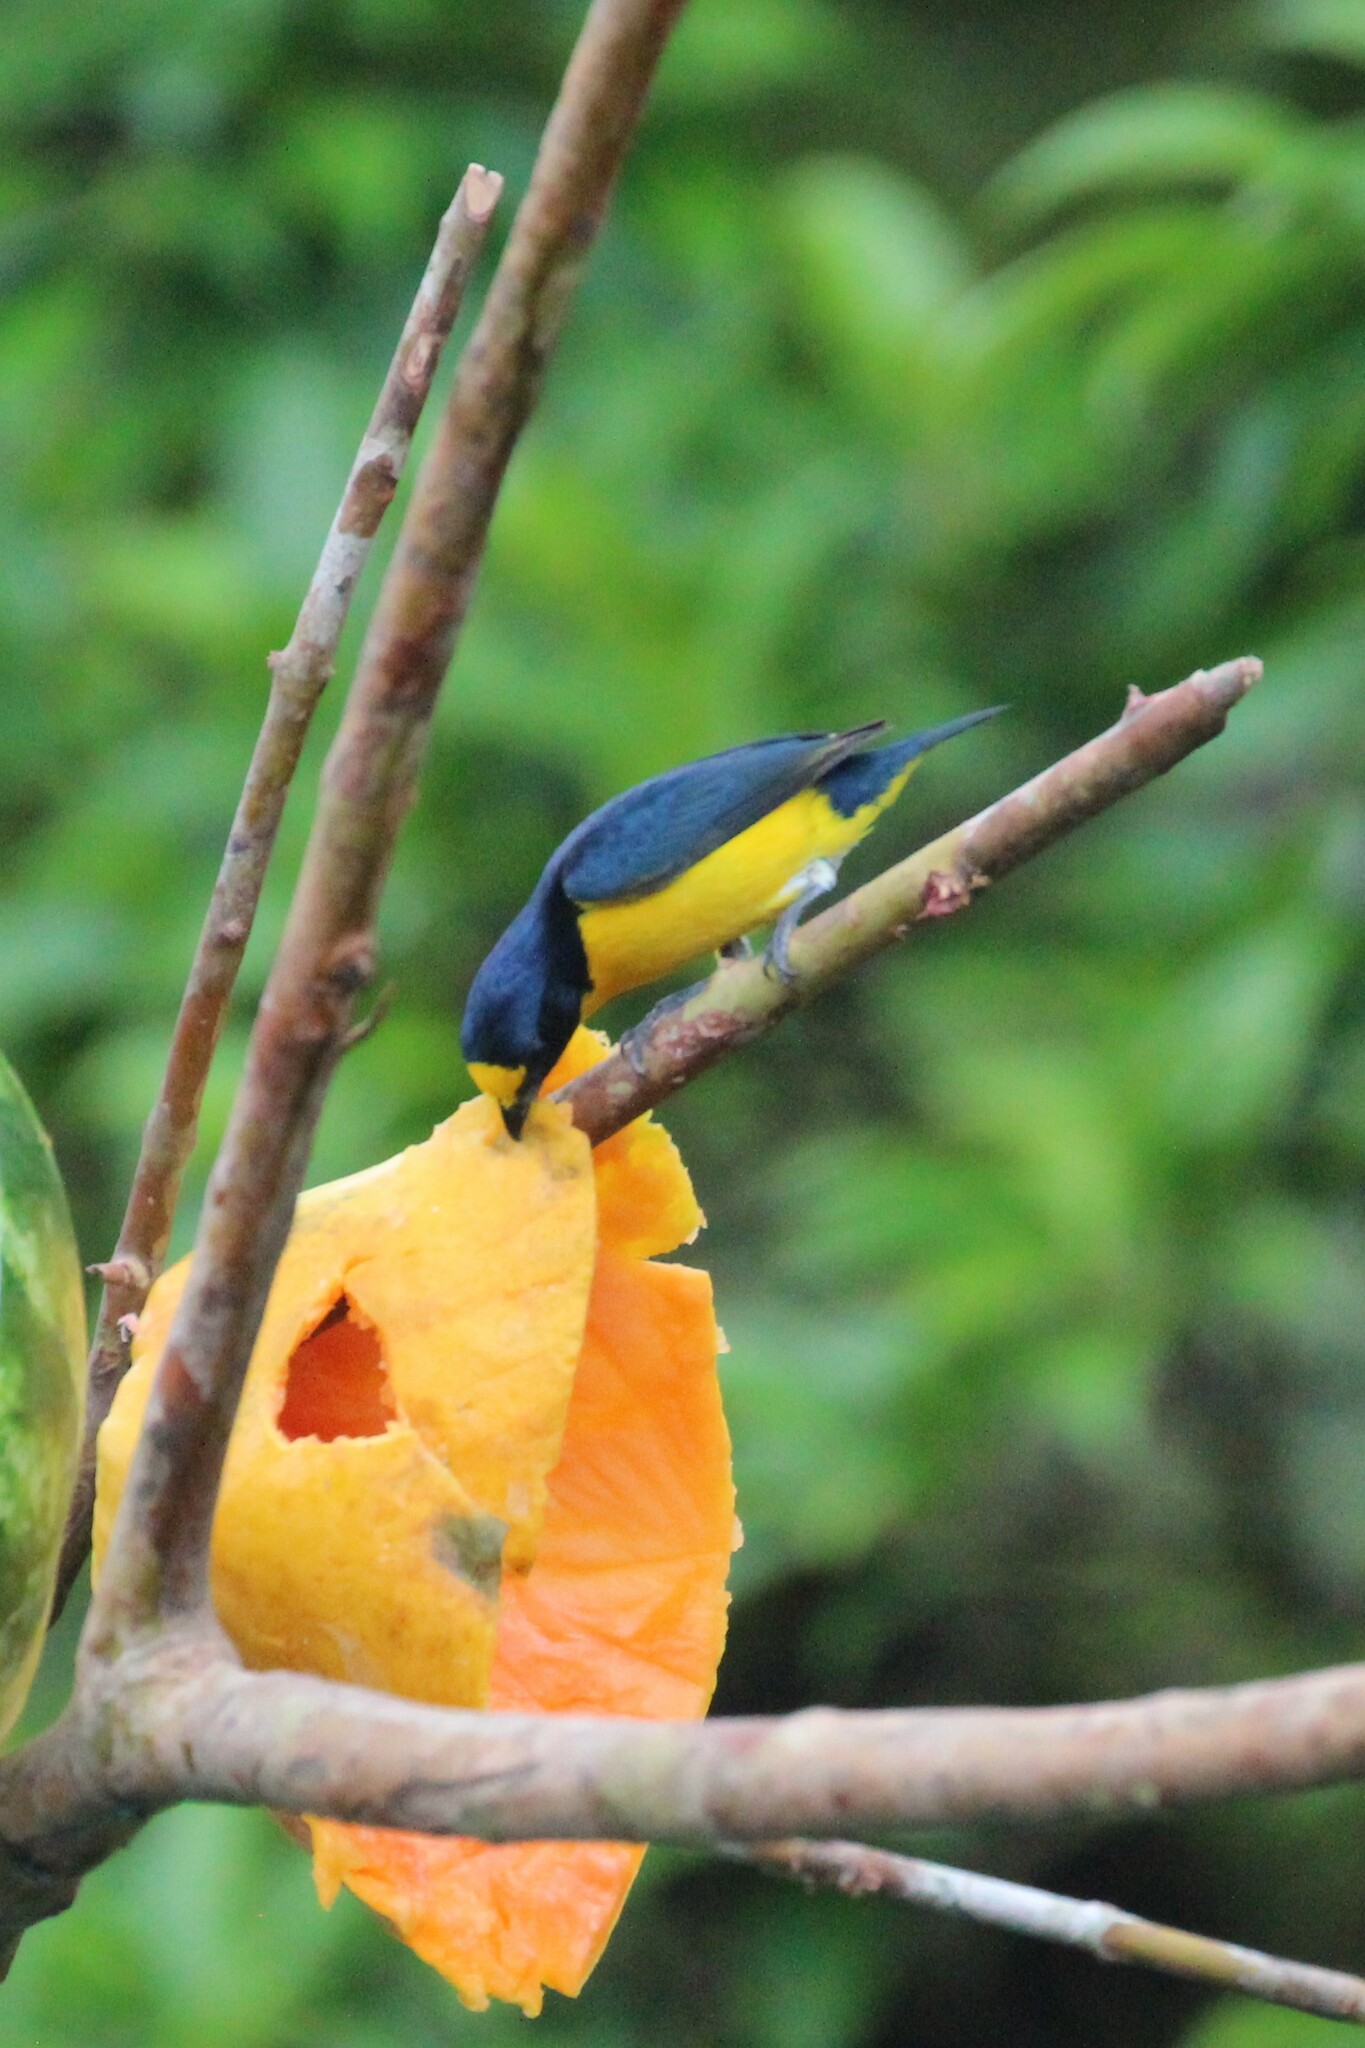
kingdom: Animalia
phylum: Chordata
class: Aves
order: Passeriformes
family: Fringillidae
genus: Euphonia
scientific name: Euphonia hirundinacea
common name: Yellow-throated euphonia
